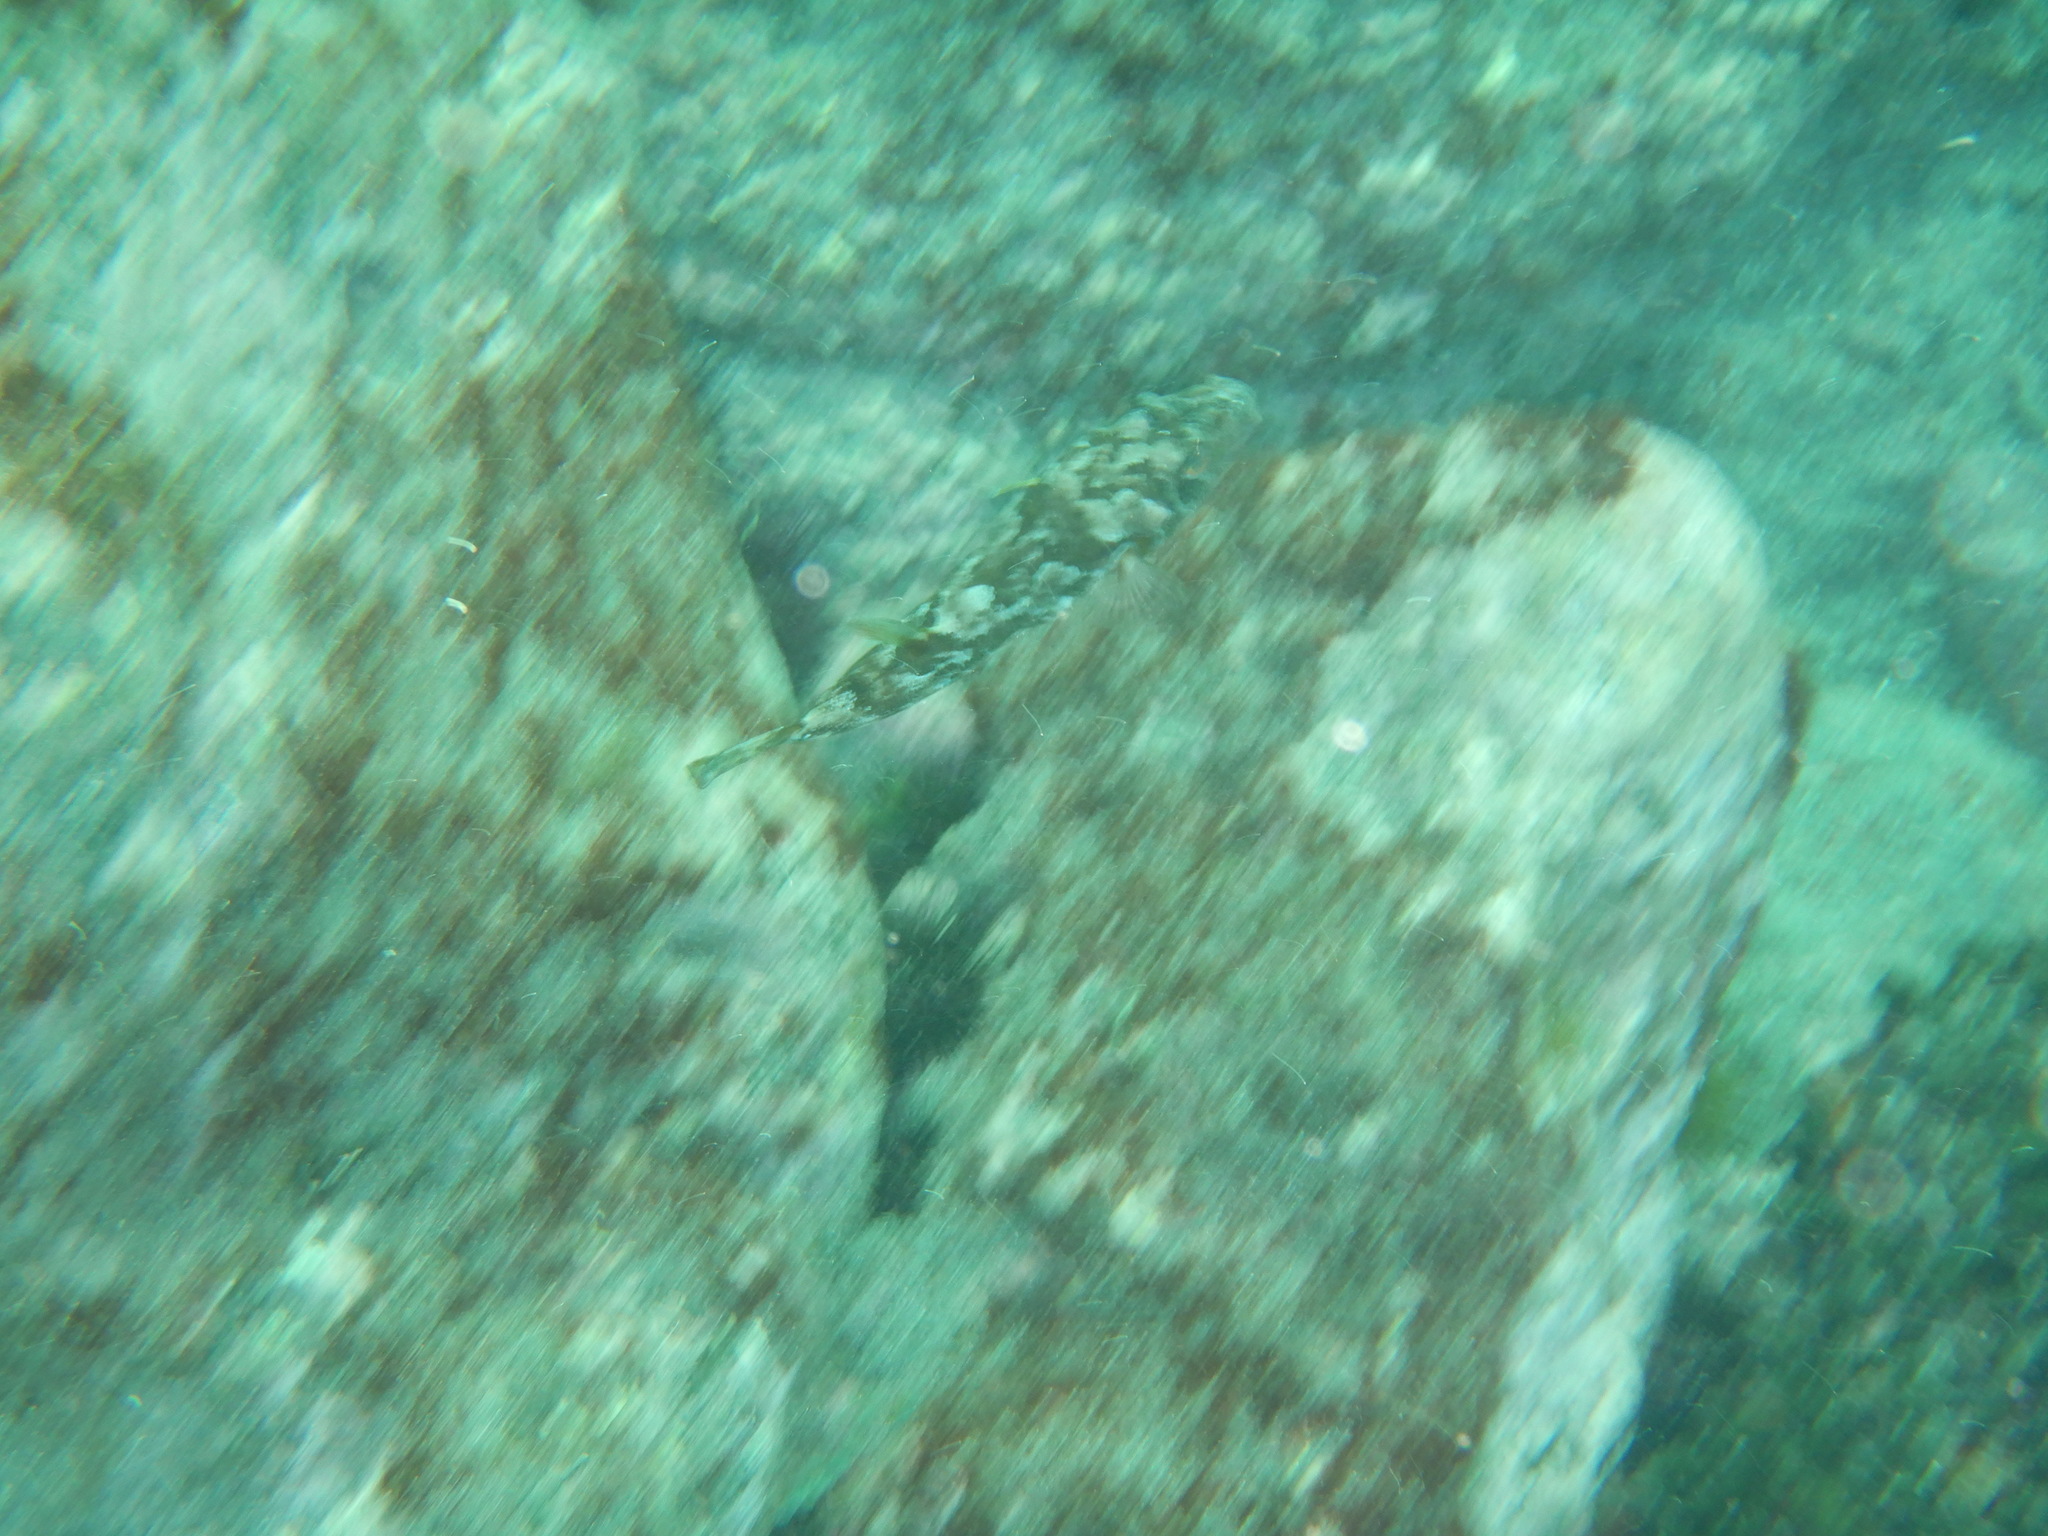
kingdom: Animalia
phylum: Chordata
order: Tetraodontiformes
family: Tetraodontidae
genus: Sphoeroides
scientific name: Sphoeroides marmoratus
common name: Guinean puffer
